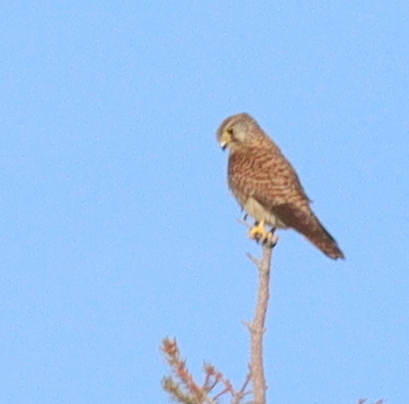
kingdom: Animalia
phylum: Chordata
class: Aves
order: Falconiformes
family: Falconidae
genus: Falco
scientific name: Falco tinnunculus
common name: Common kestrel
